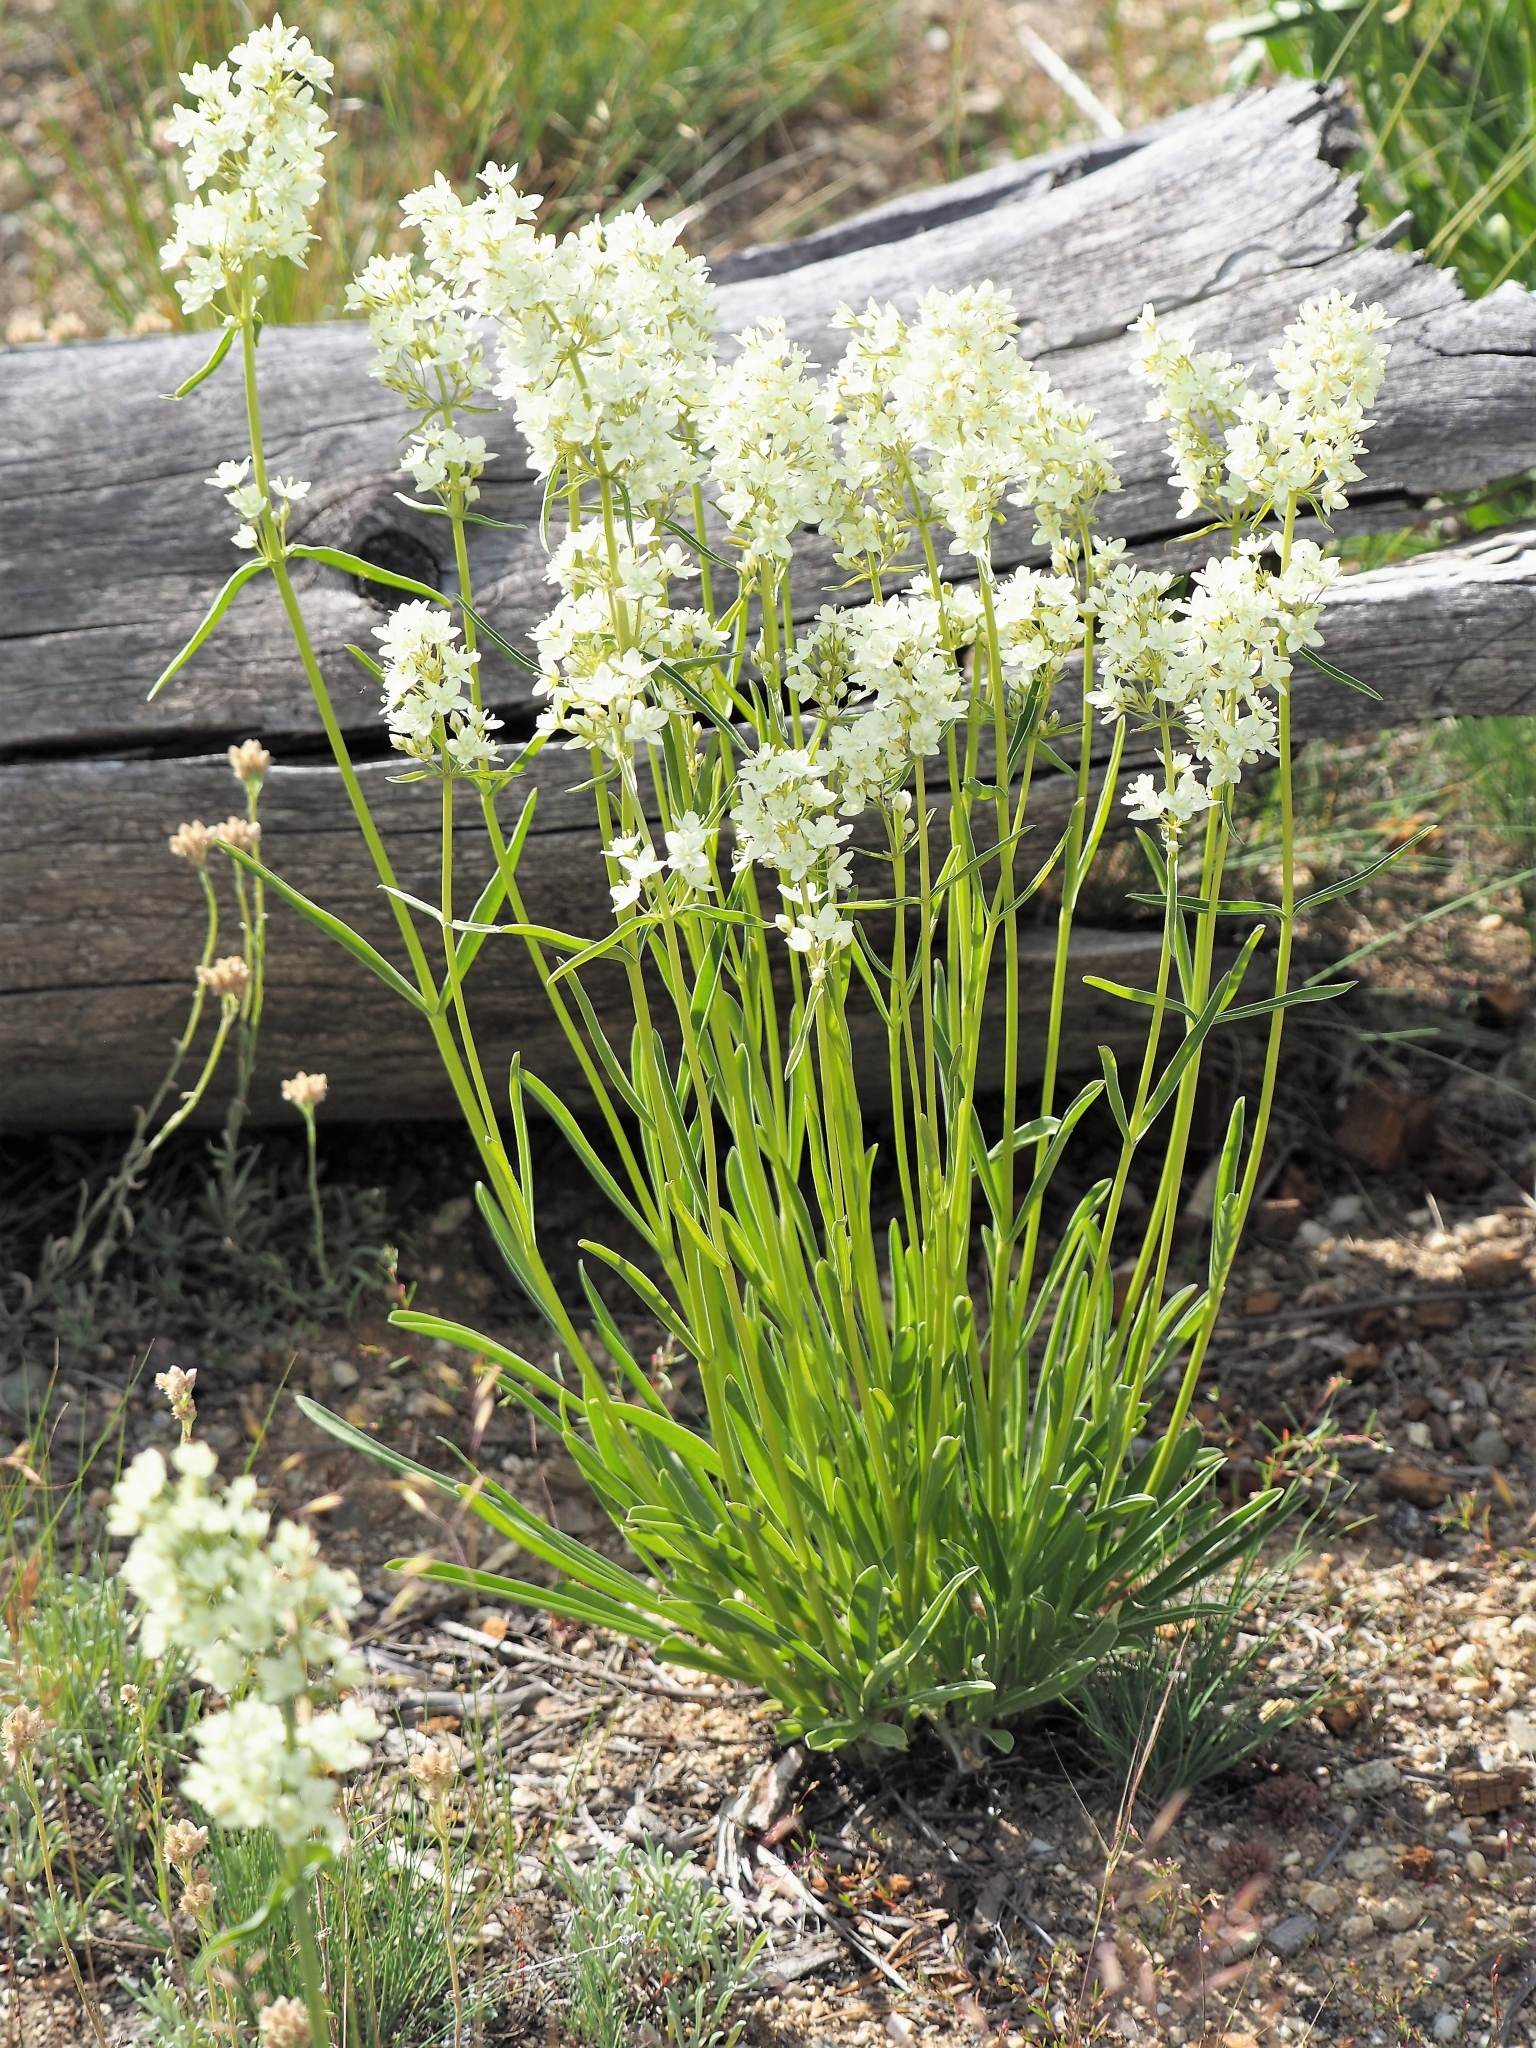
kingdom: Plantae
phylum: Tracheophyta
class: Magnoliopsida
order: Gentianales
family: Gentianaceae
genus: Frasera
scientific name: Frasera montana
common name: White frasera
